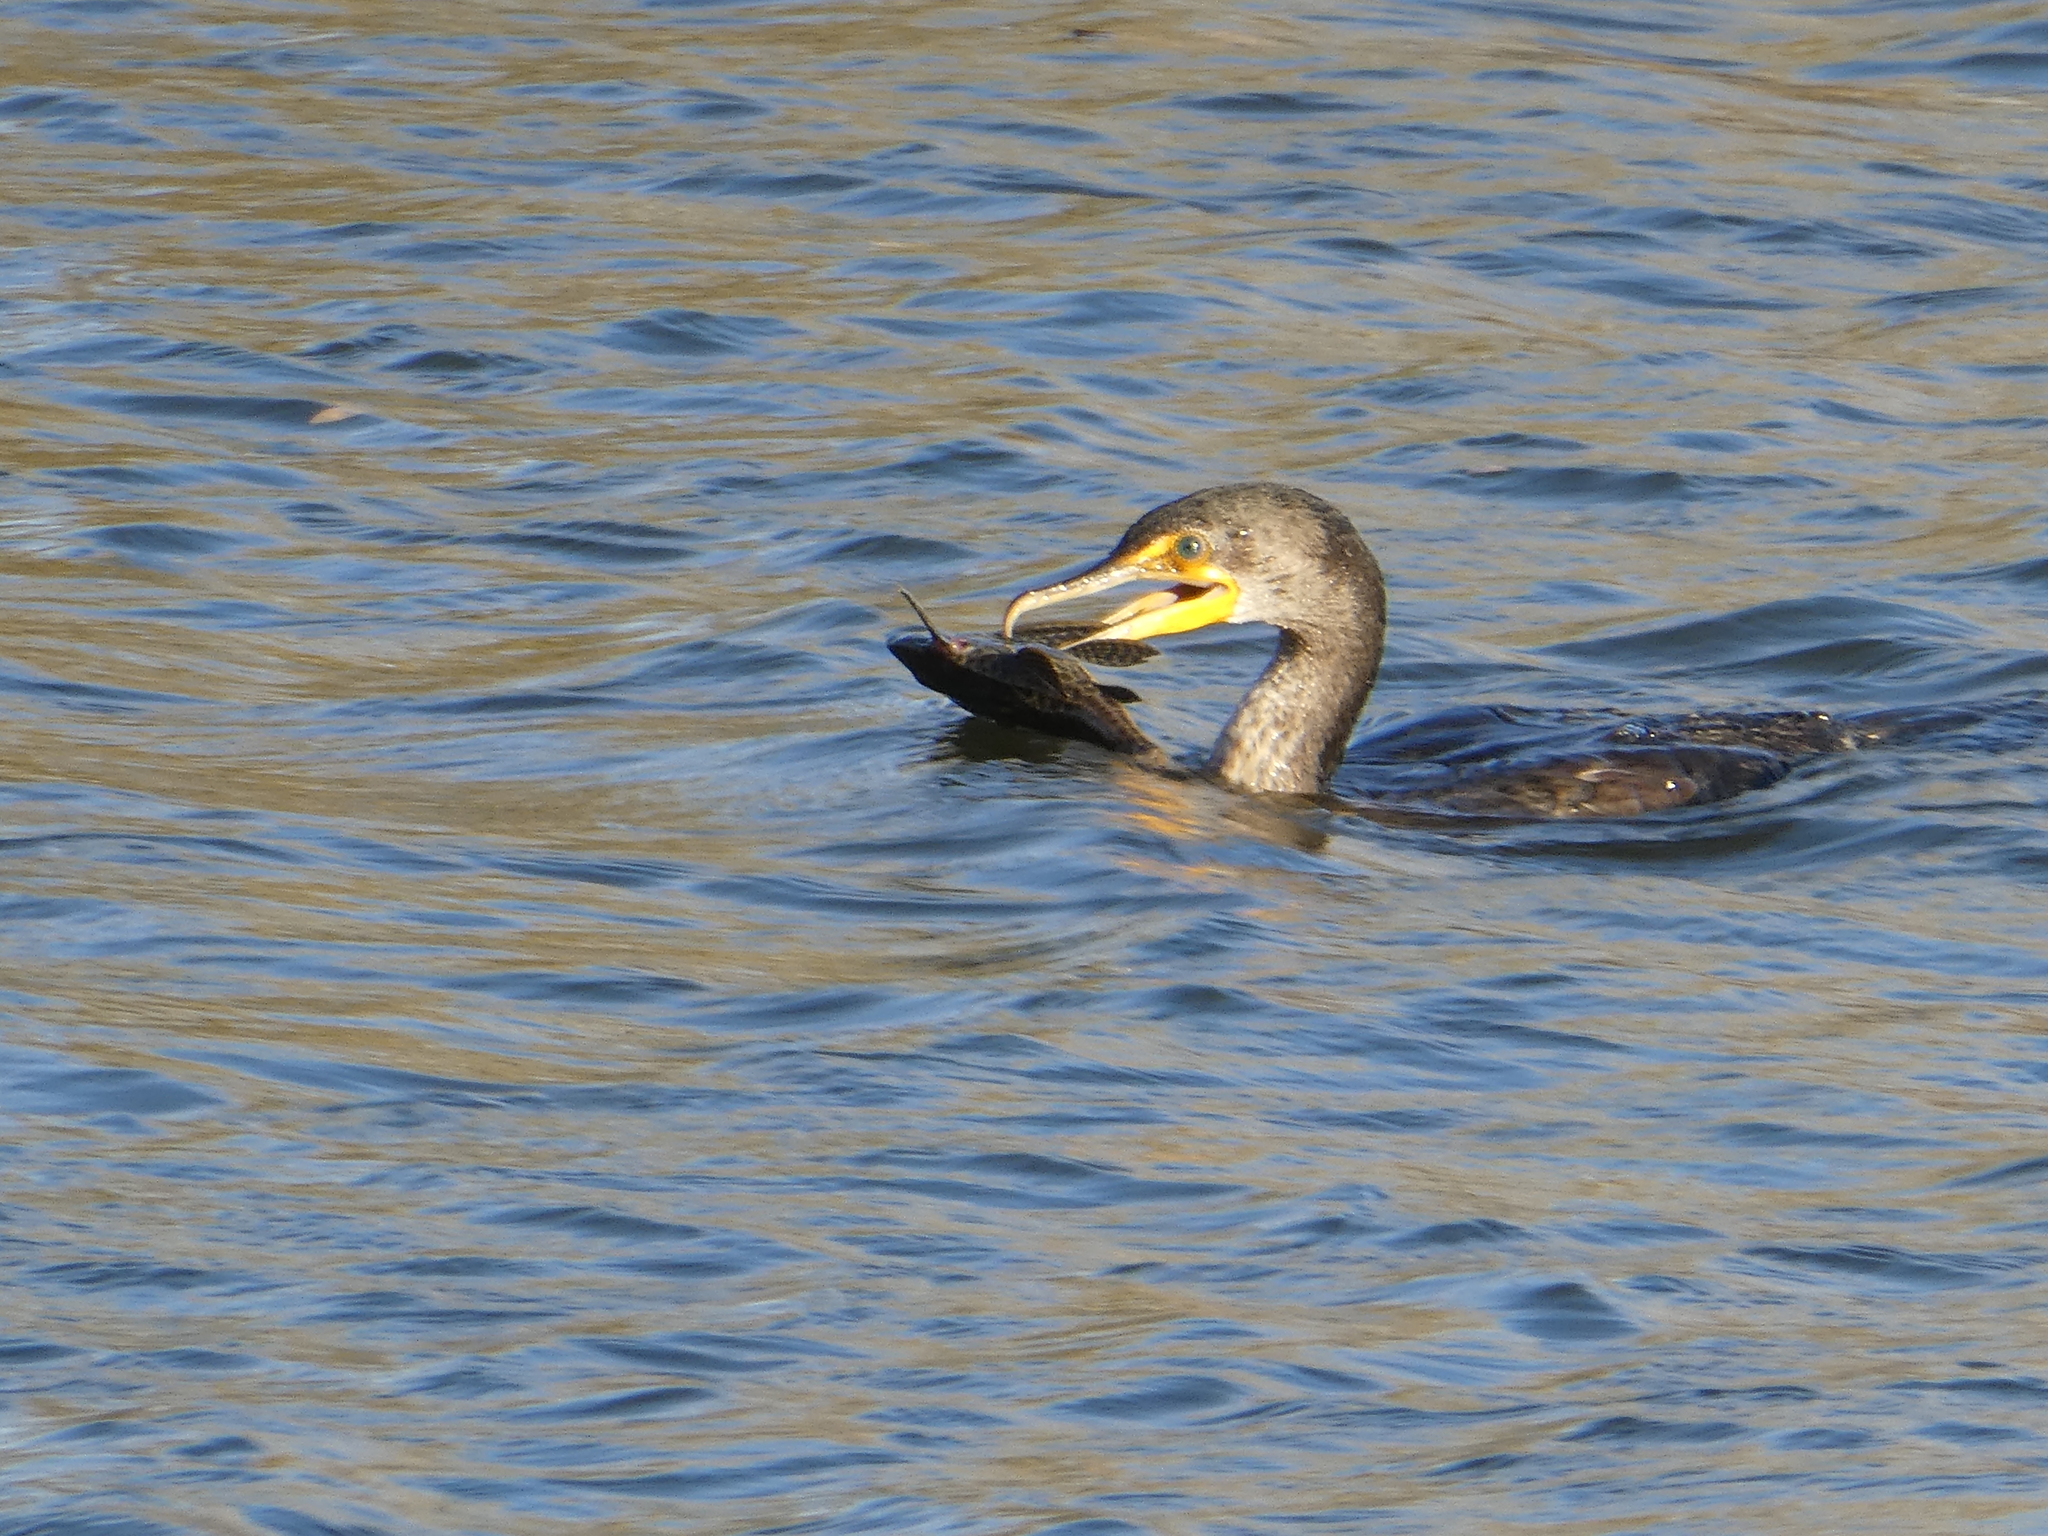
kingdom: Animalia
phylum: Chordata
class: Aves
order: Suliformes
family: Phalacrocoracidae
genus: Phalacrocorax
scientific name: Phalacrocorax auritus
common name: Double-crested cormorant
